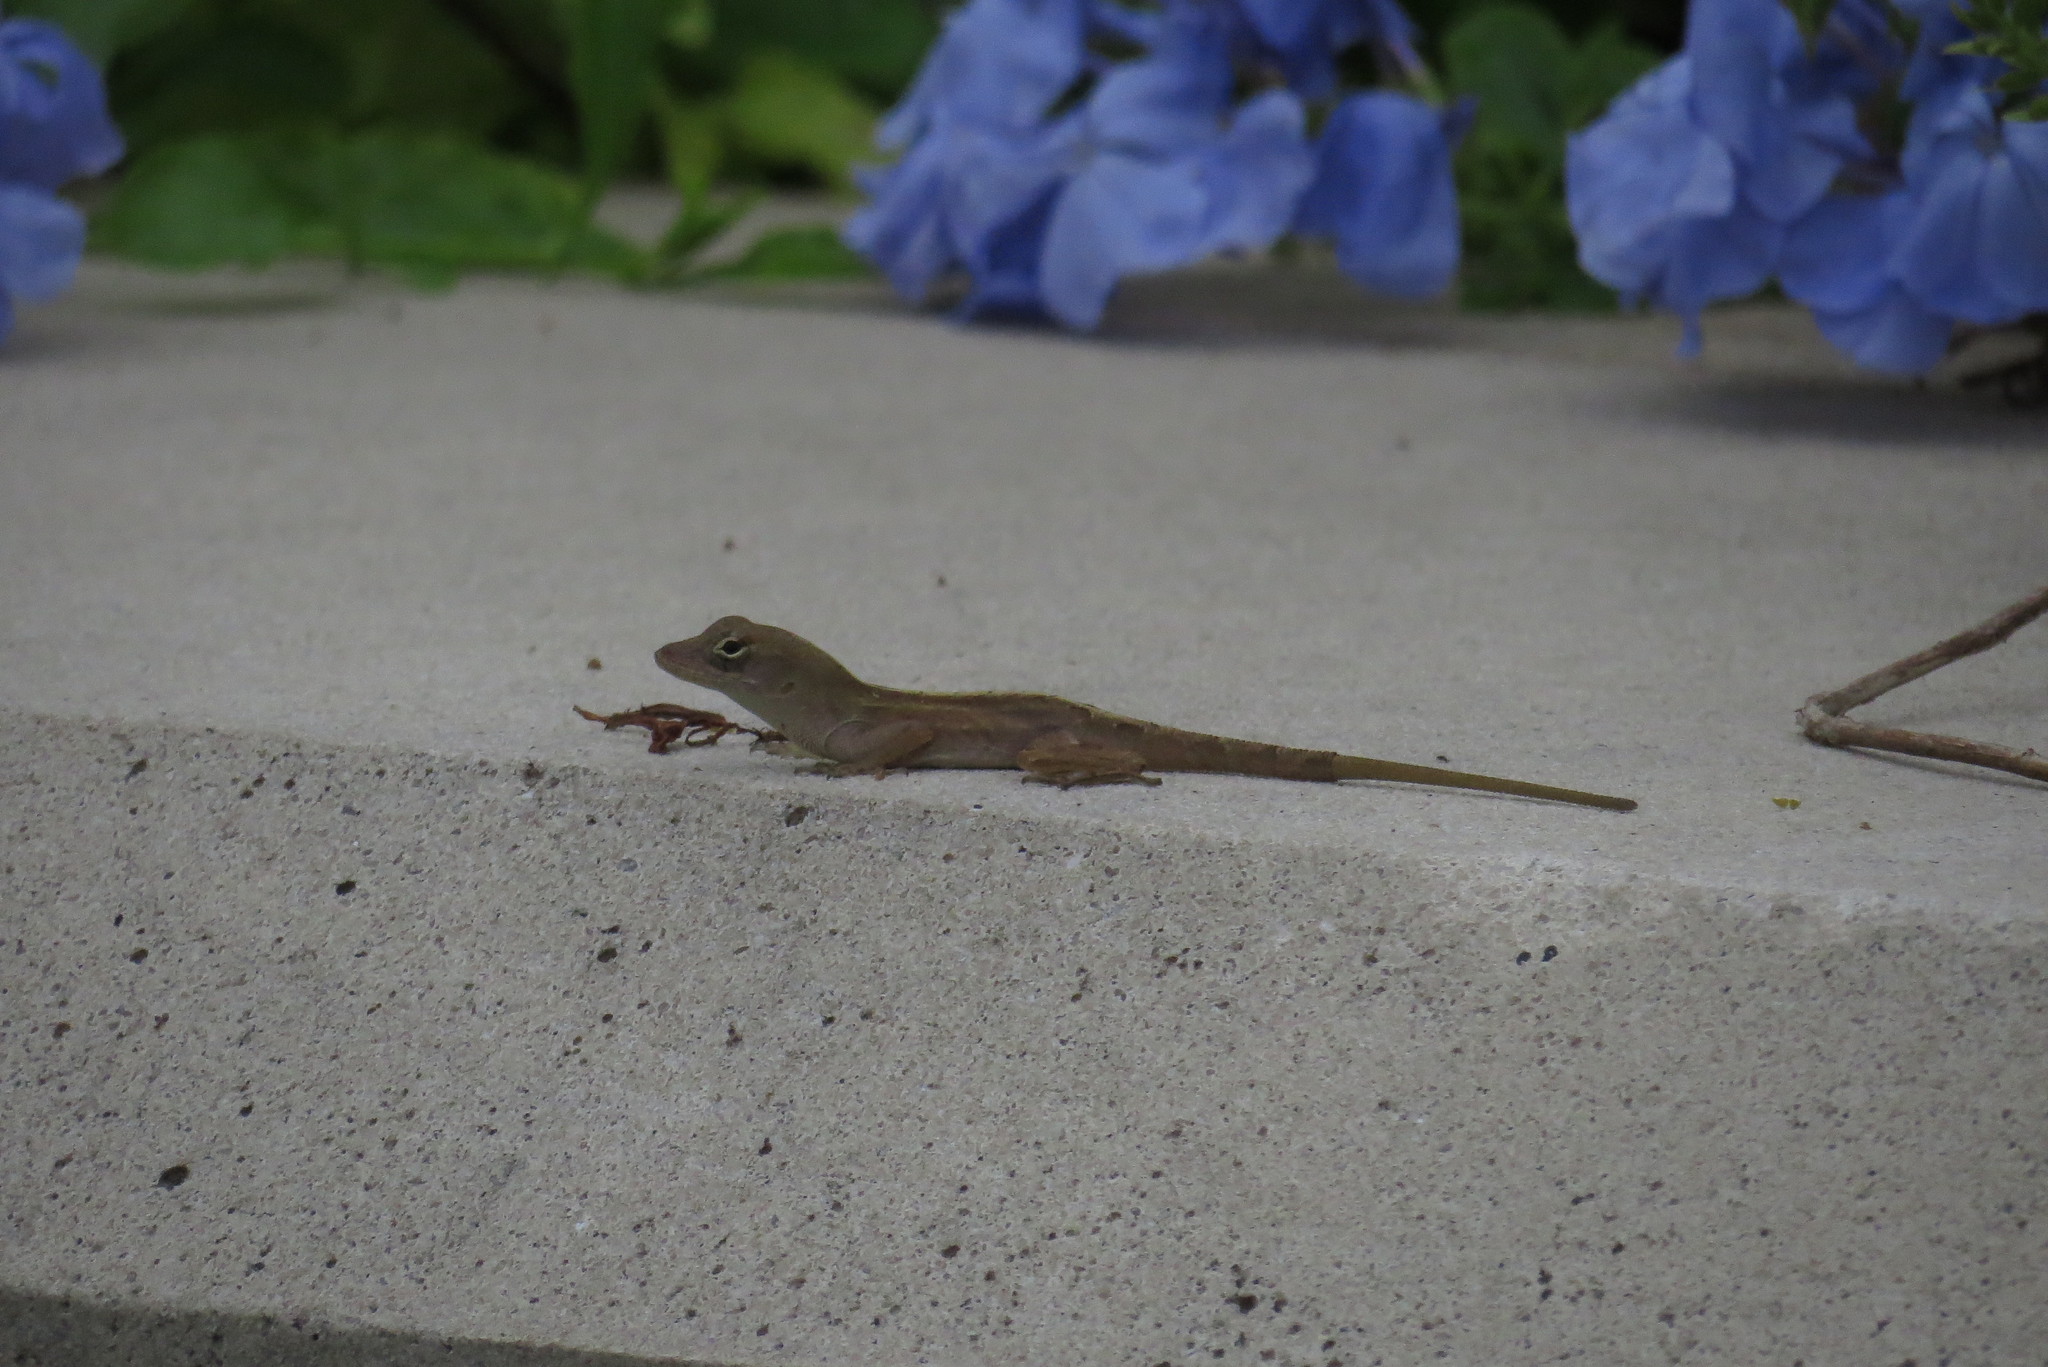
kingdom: Animalia
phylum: Chordata
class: Squamata
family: Dactyloidae
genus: Anolis
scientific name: Anolis sagrei
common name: Brown anole
